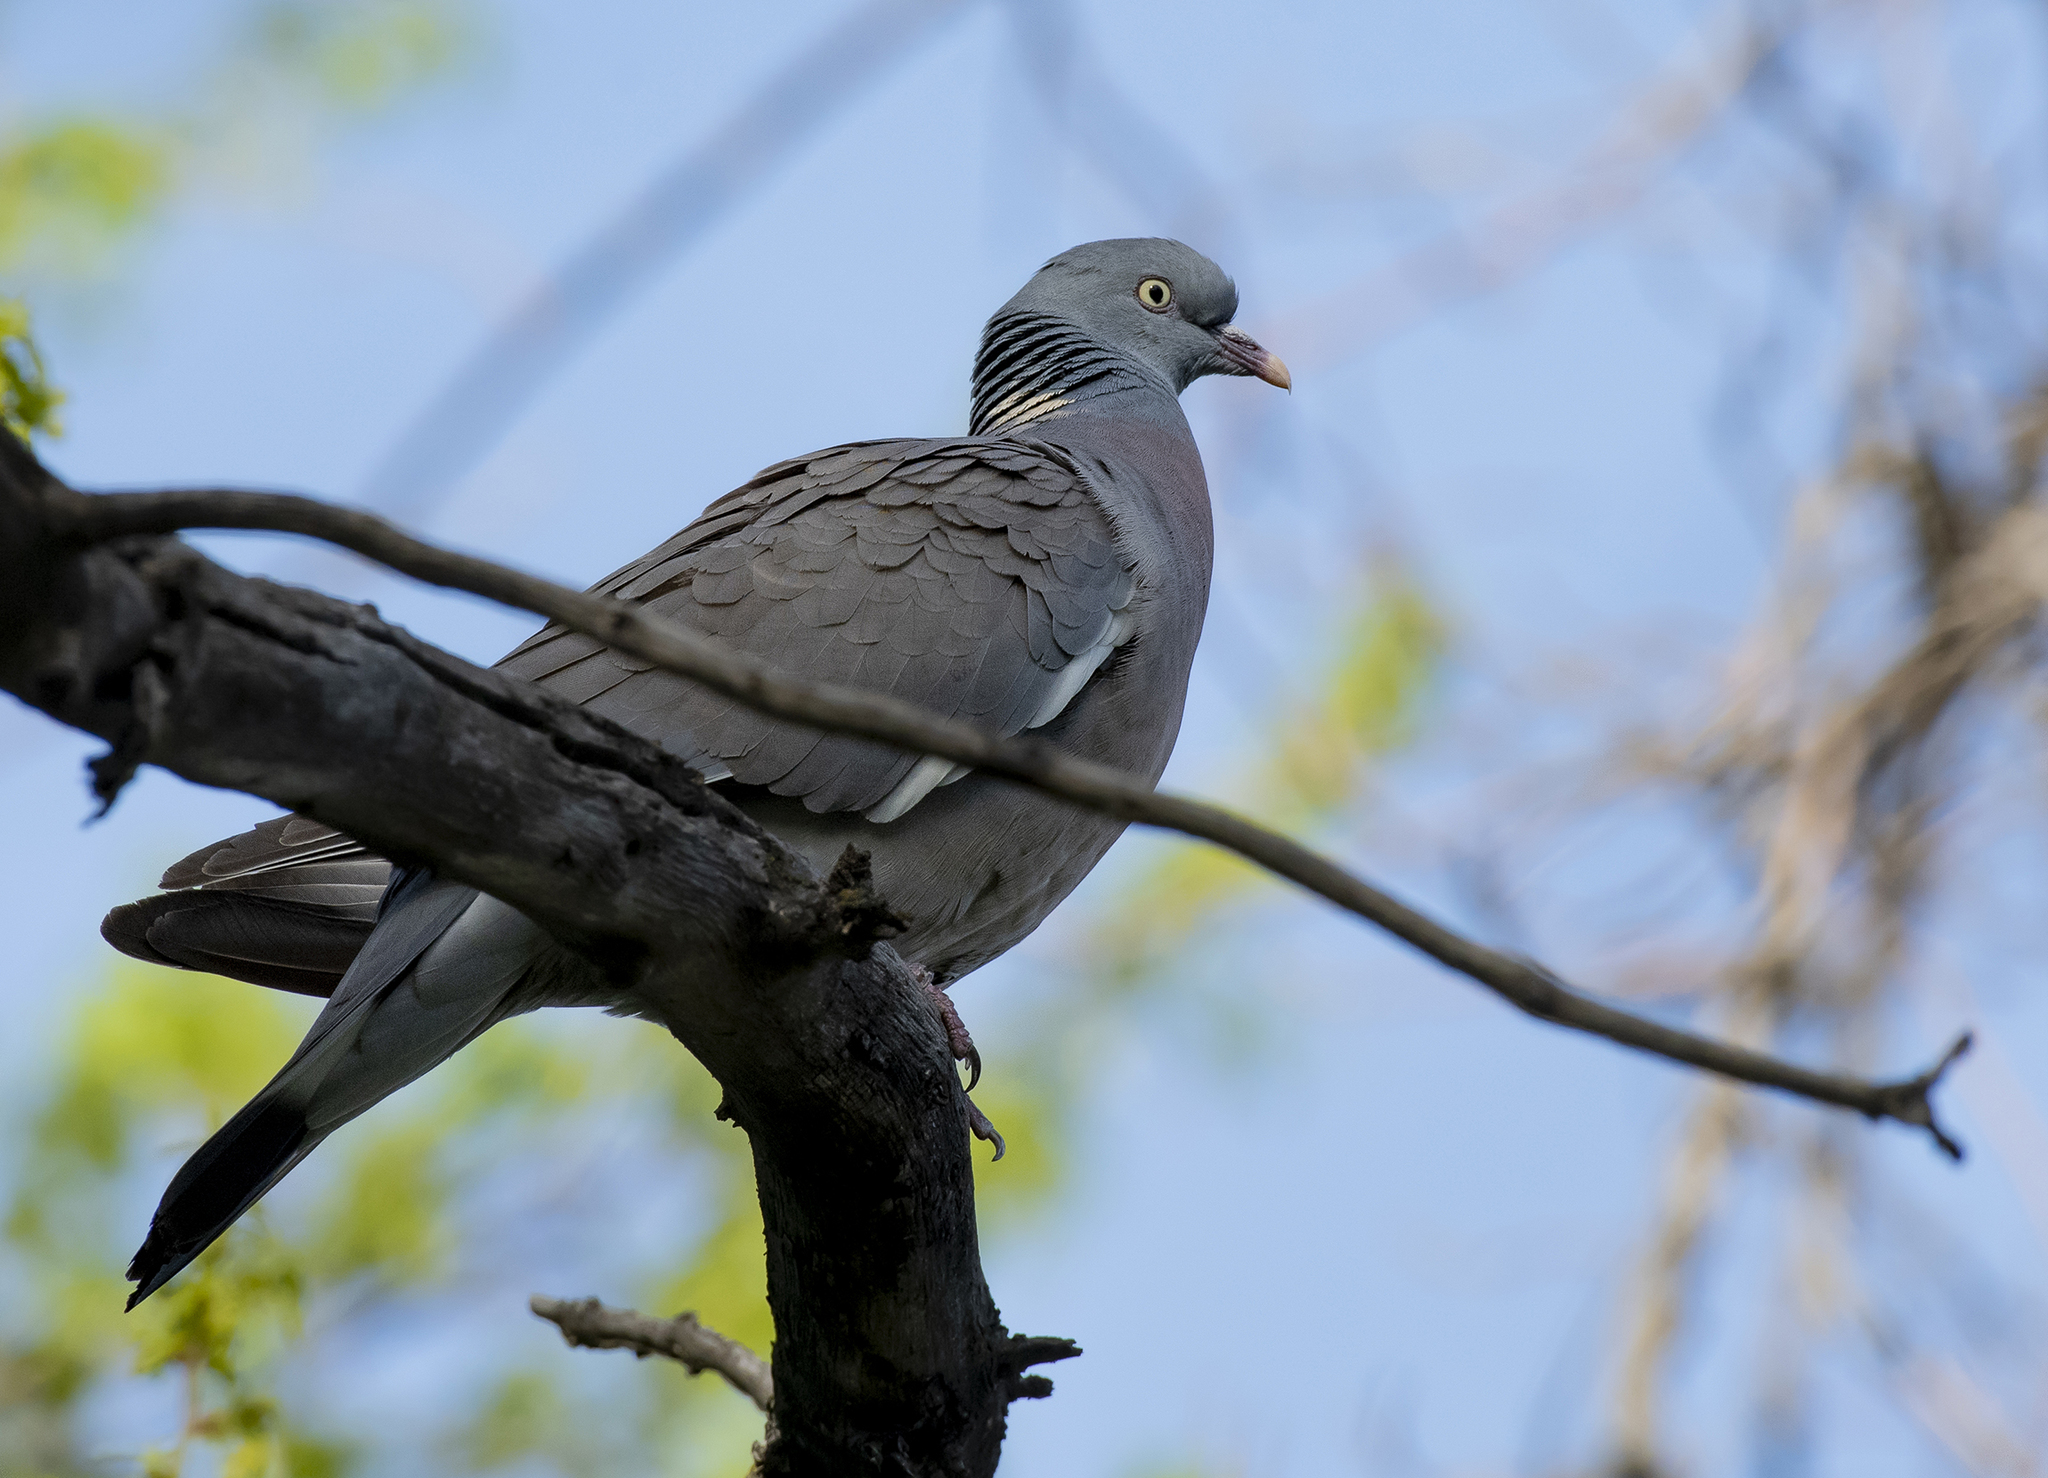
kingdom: Animalia
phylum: Chordata
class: Aves
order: Columbiformes
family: Columbidae
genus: Columba
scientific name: Columba palumbus
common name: Common wood pigeon
